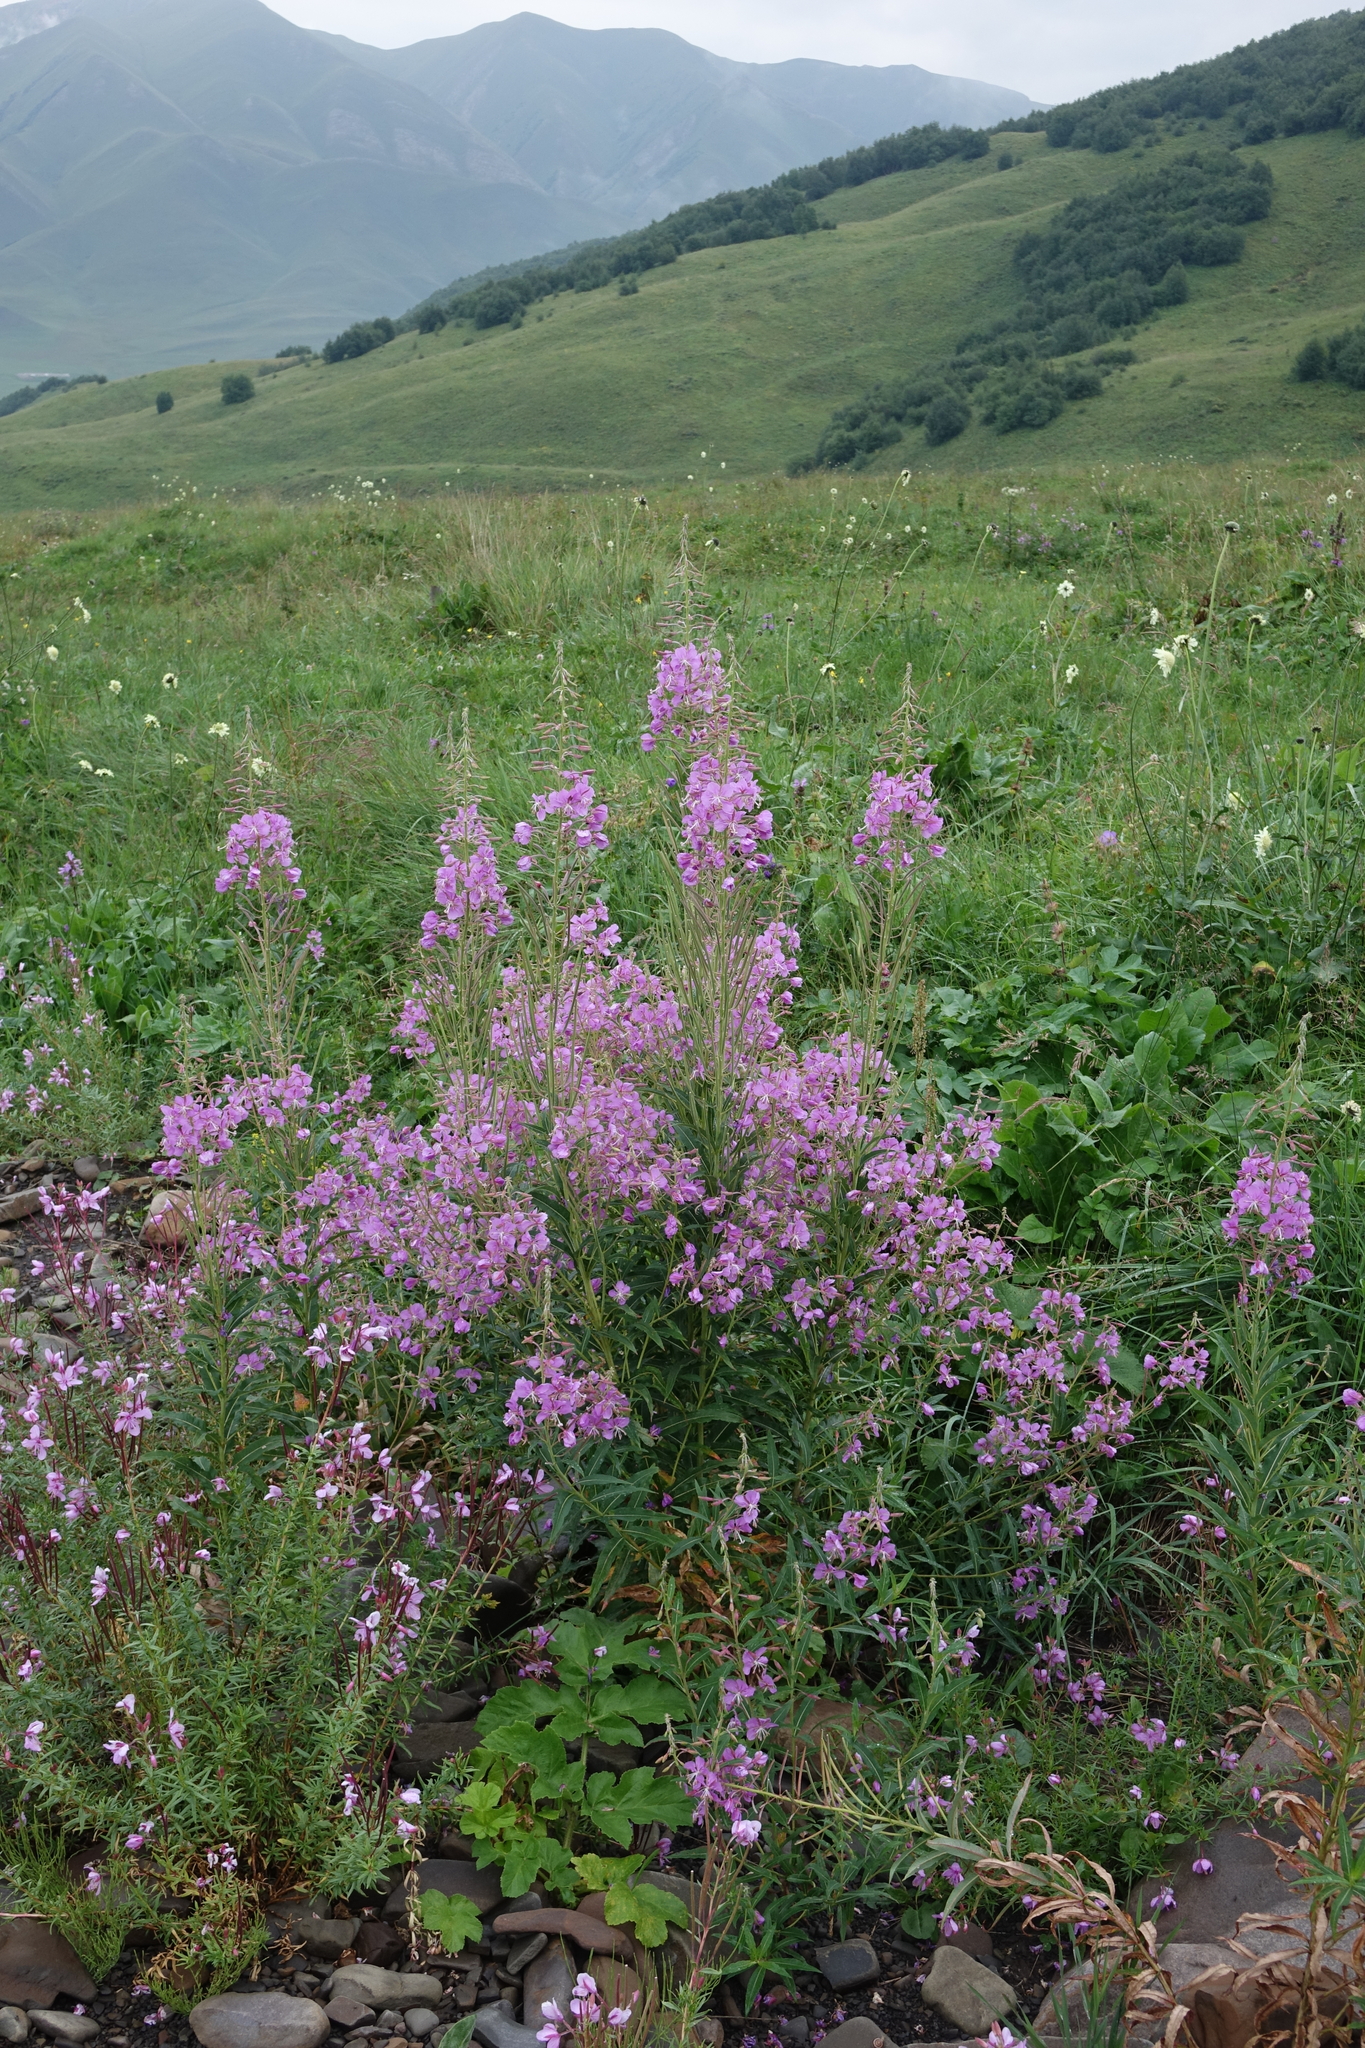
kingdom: Plantae
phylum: Tracheophyta
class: Magnoliopsida
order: Myrtales
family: Onagraceae
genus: Chamaenerion
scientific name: Chamaenerion angustifolium
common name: Fireweed
